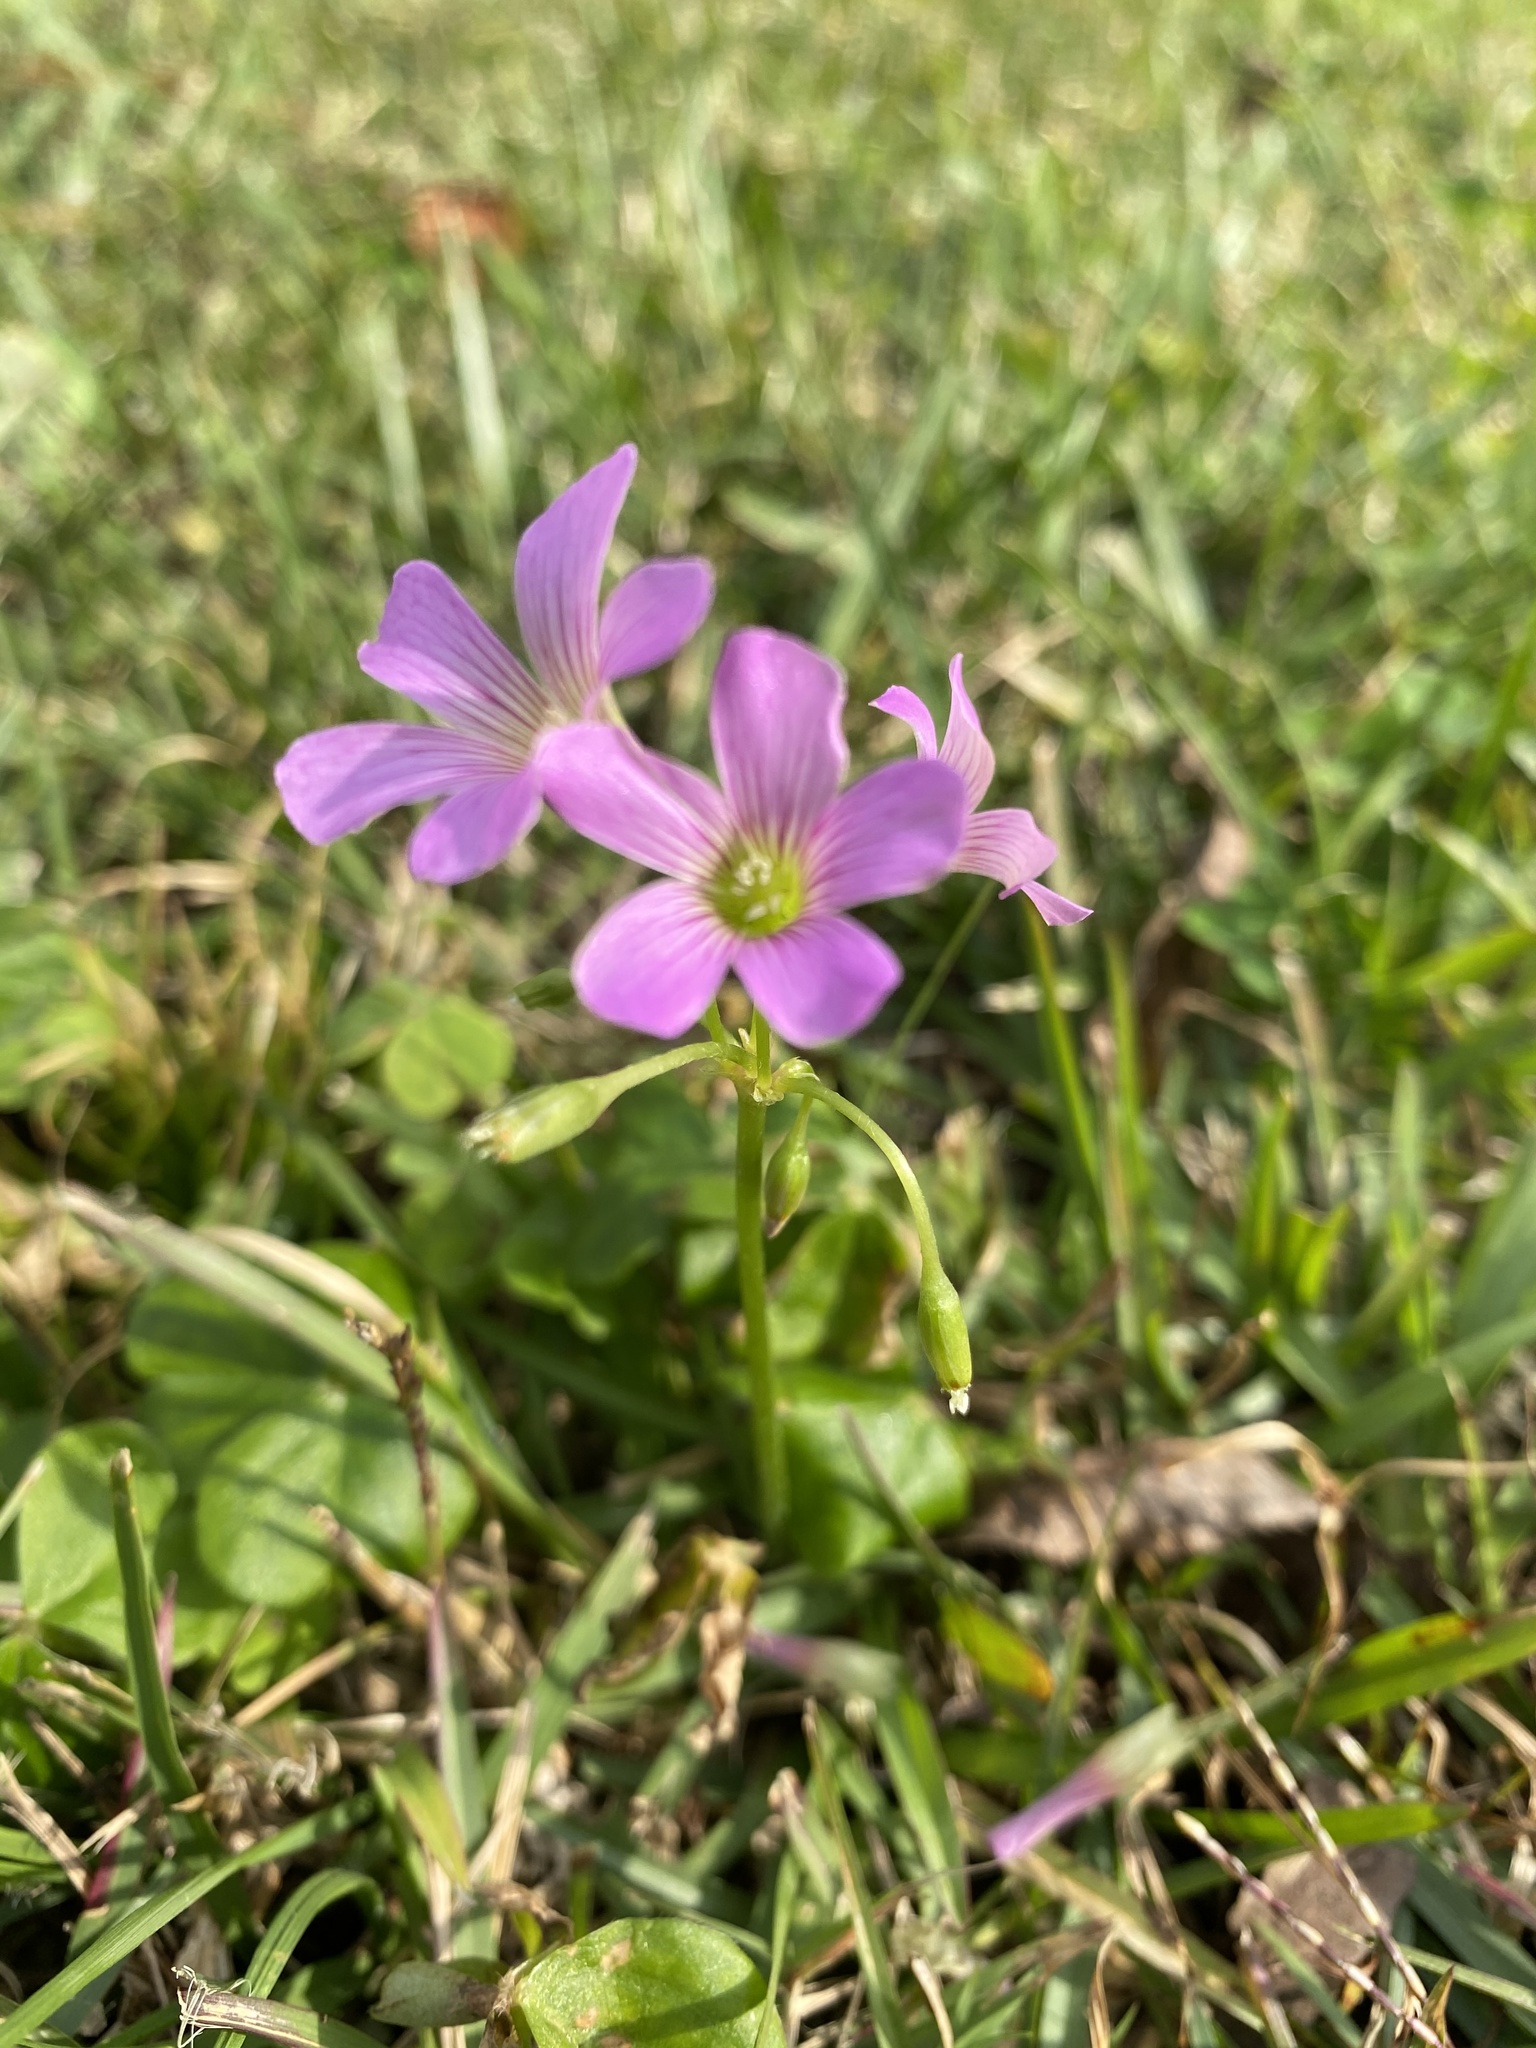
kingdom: Plantae
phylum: Tracheophyta
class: Magnoliopsida
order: Oxalidales
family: Oxalidaceae
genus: Oxalis
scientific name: Oxalis debilis
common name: Large-flowered pink-sorrel
